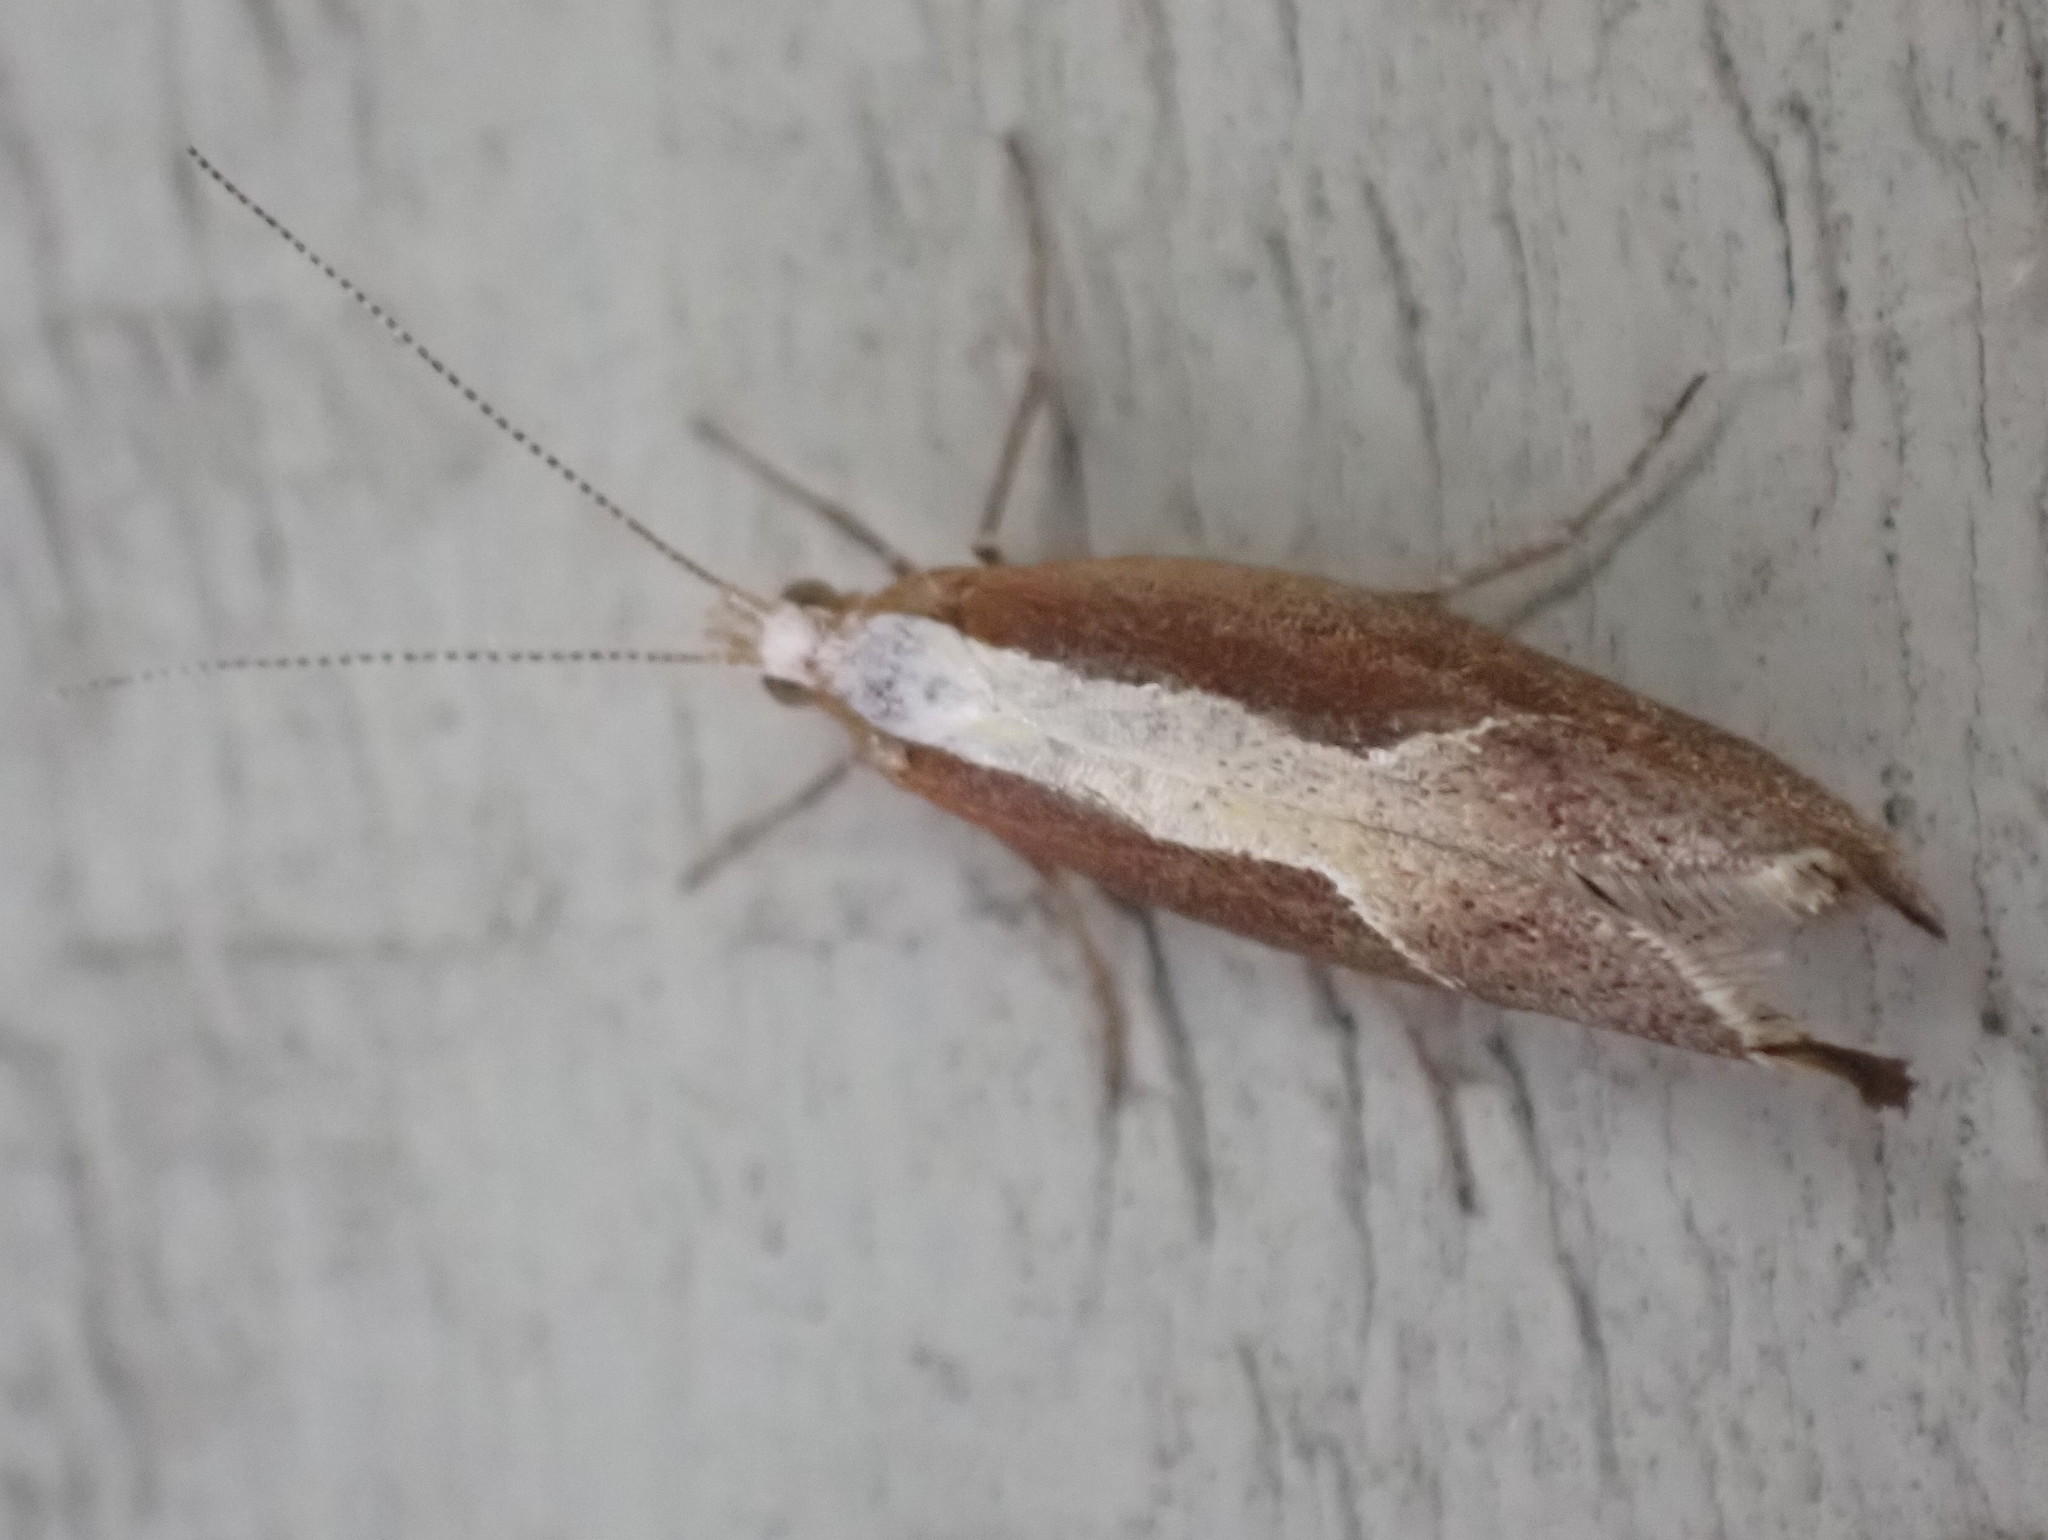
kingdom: Animalia
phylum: Arthropoda
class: Insecta
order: Lepidoptera
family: Ypsolophidae
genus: Ypsolopha
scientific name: Ypsolopha dentella
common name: Honeysuckle moth
